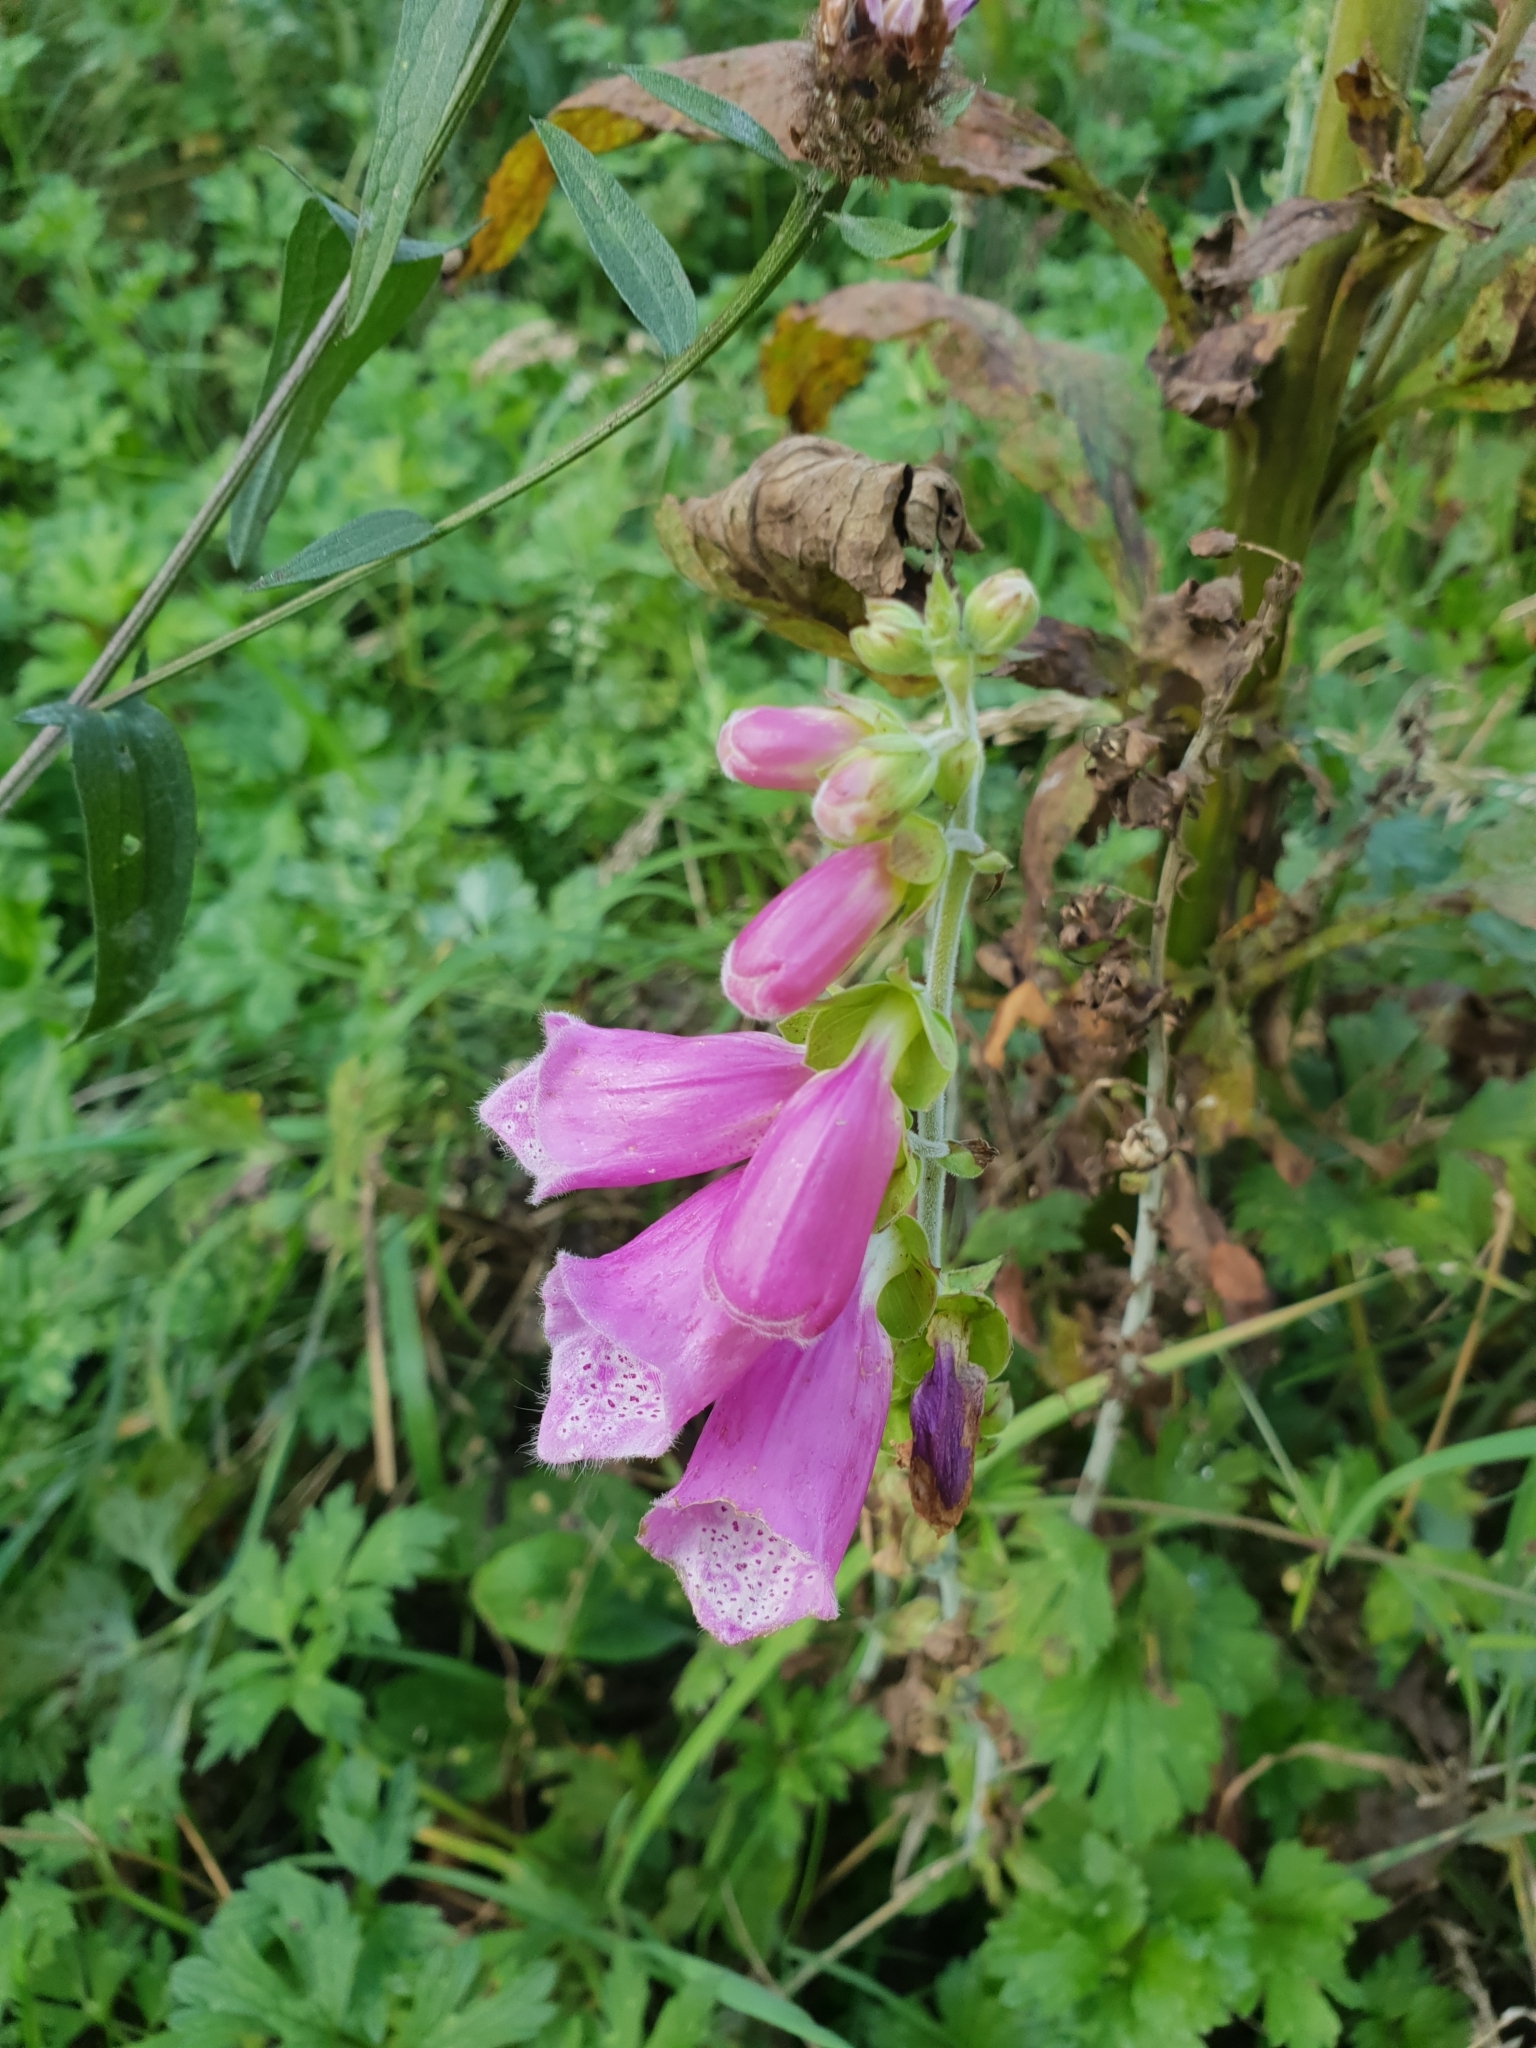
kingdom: Plantae
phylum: Tracheophyta
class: Magnoliopsida
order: Lamiales
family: Plantaginaceae
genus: Digitalis
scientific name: Digitalis purpurea
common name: Foxglove
